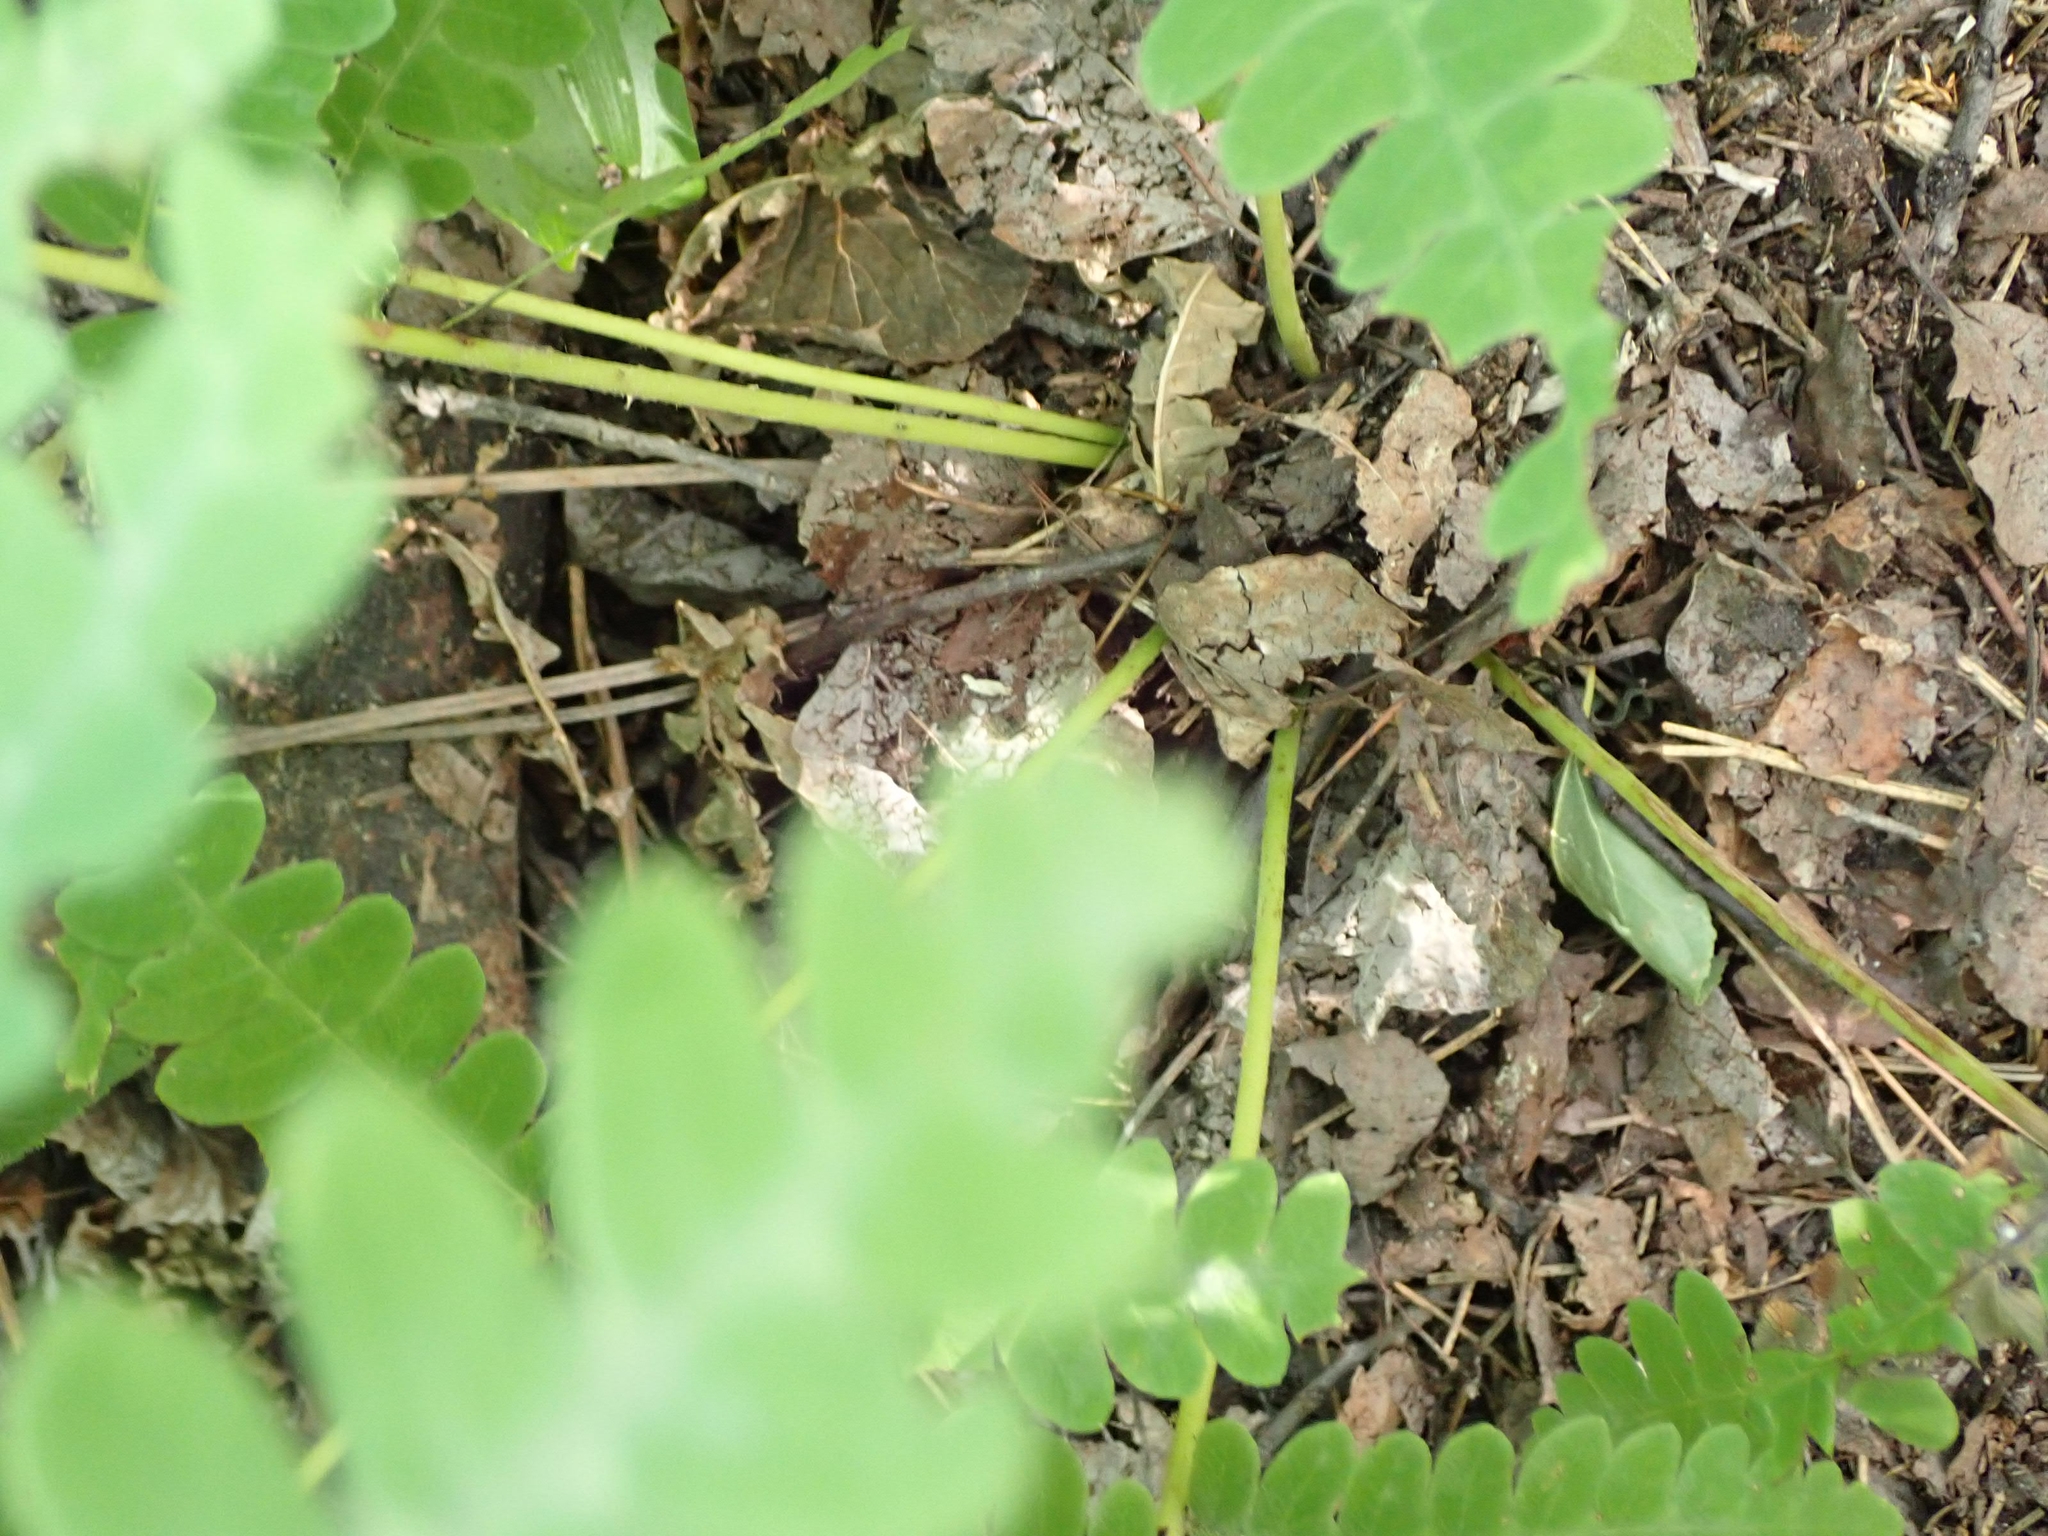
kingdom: Plantae
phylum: Tracheophyta
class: Polypodiopsida
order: Osmundales
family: Osmundaceae
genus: Claytosmunda
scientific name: Claytosmunda claytoniana
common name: Clayton's fern
